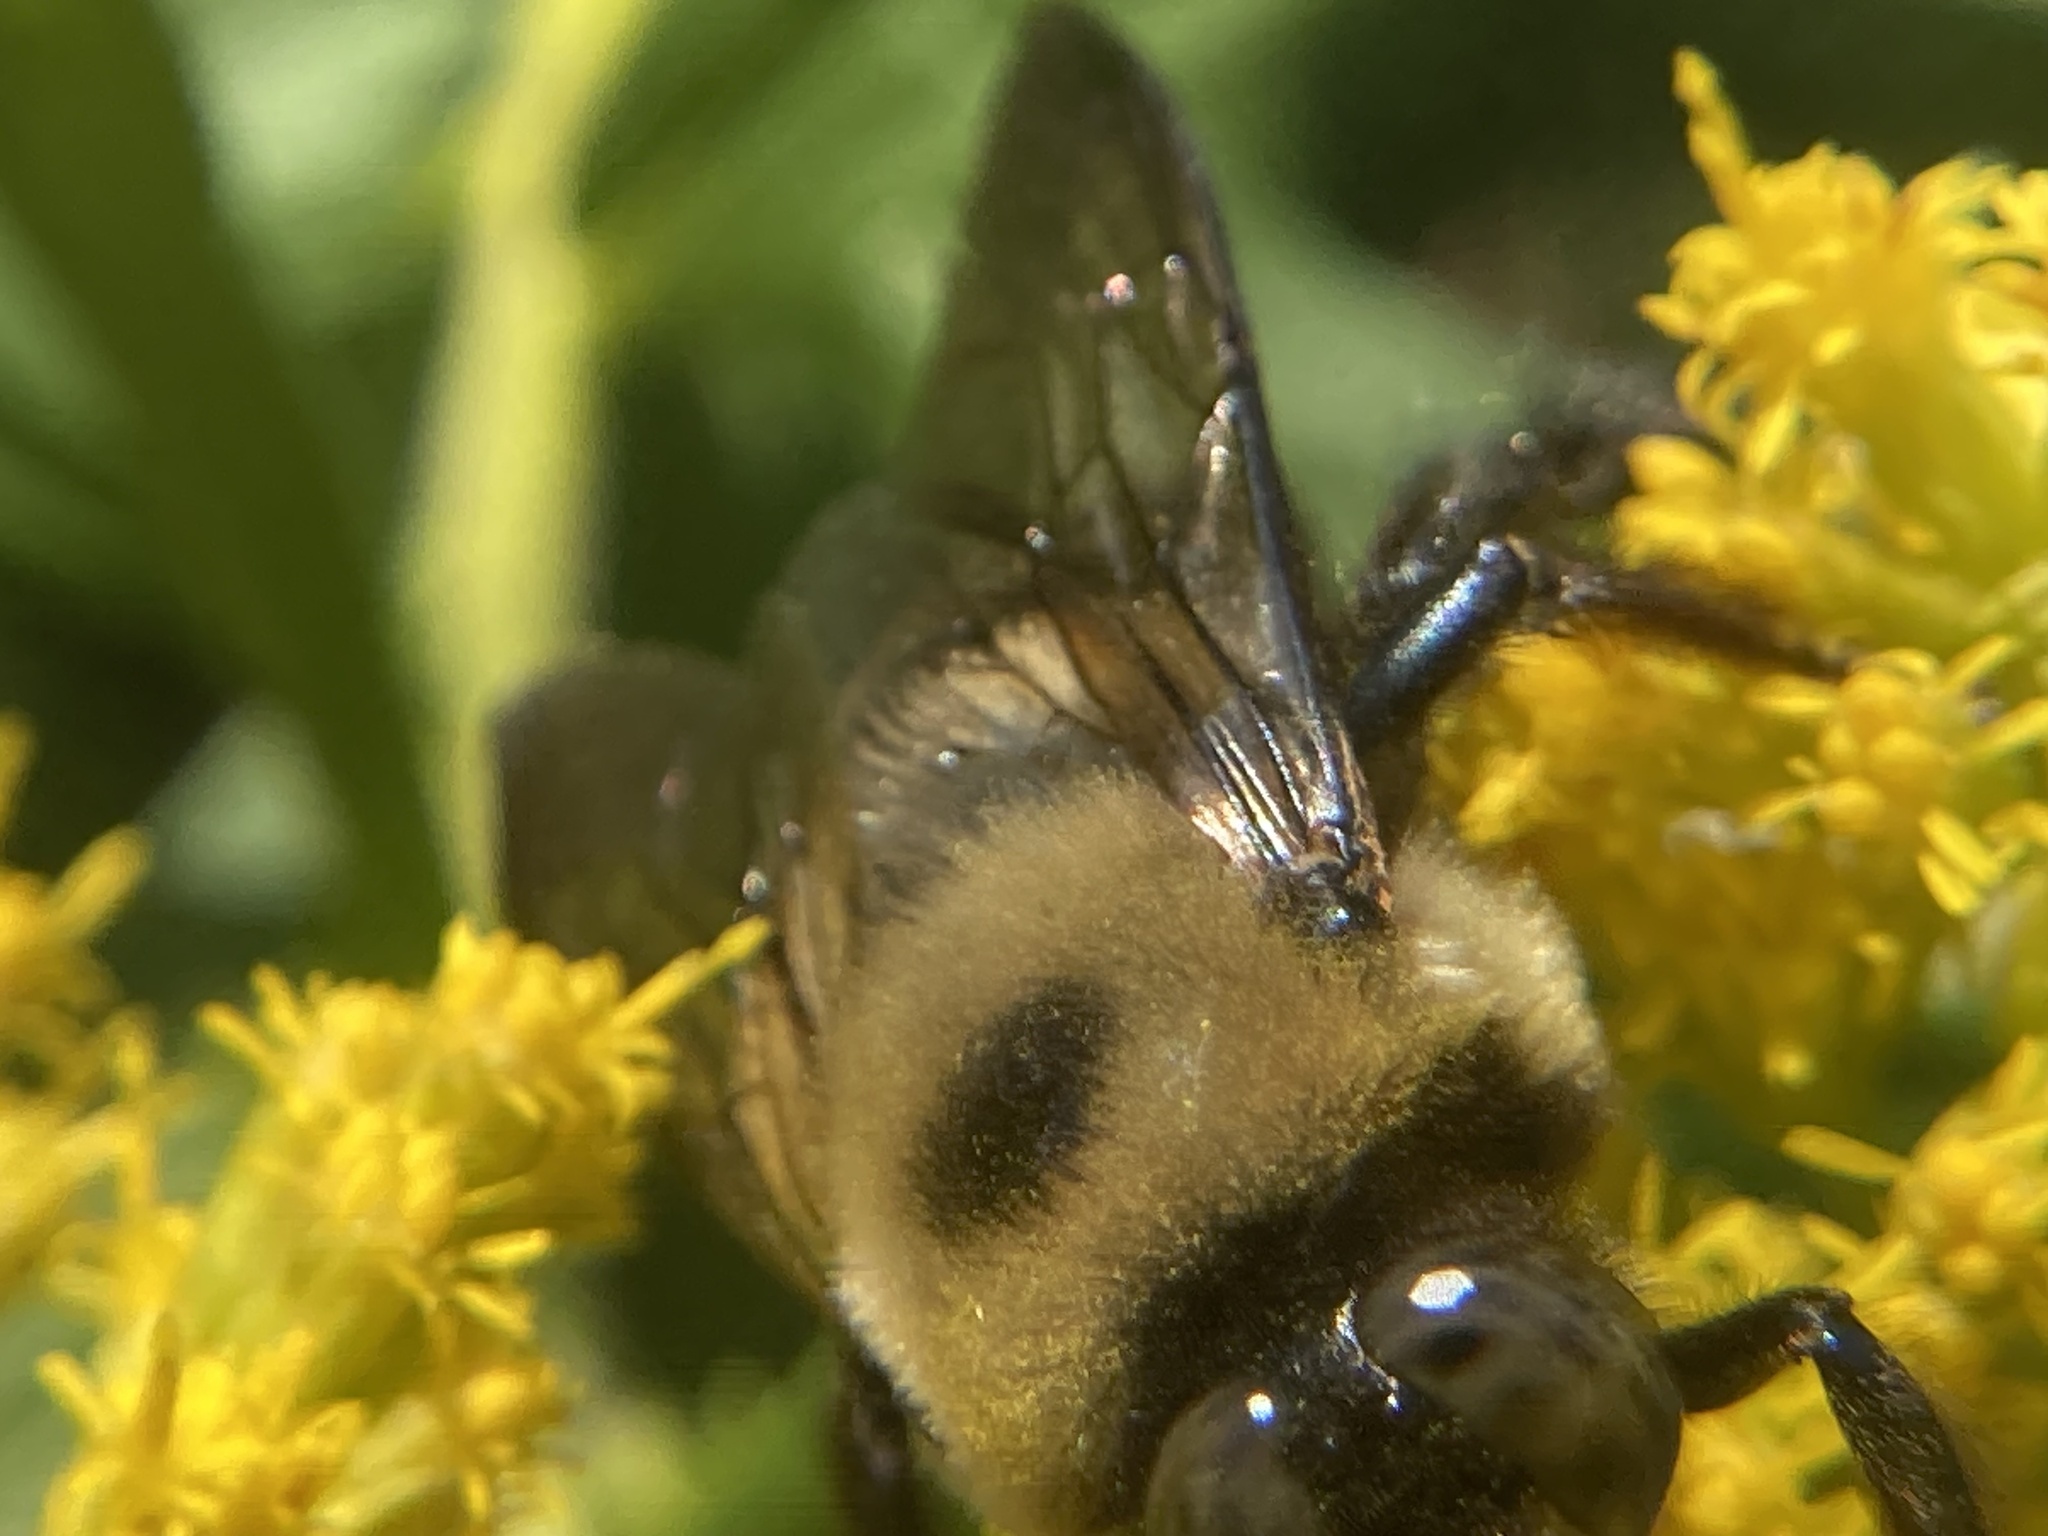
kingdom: Animalia
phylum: Arthropoda
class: Insecta
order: Hymenoptera
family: Apidae
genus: Xylocopa
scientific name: Xylocopa virginica
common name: Carpenter bee
